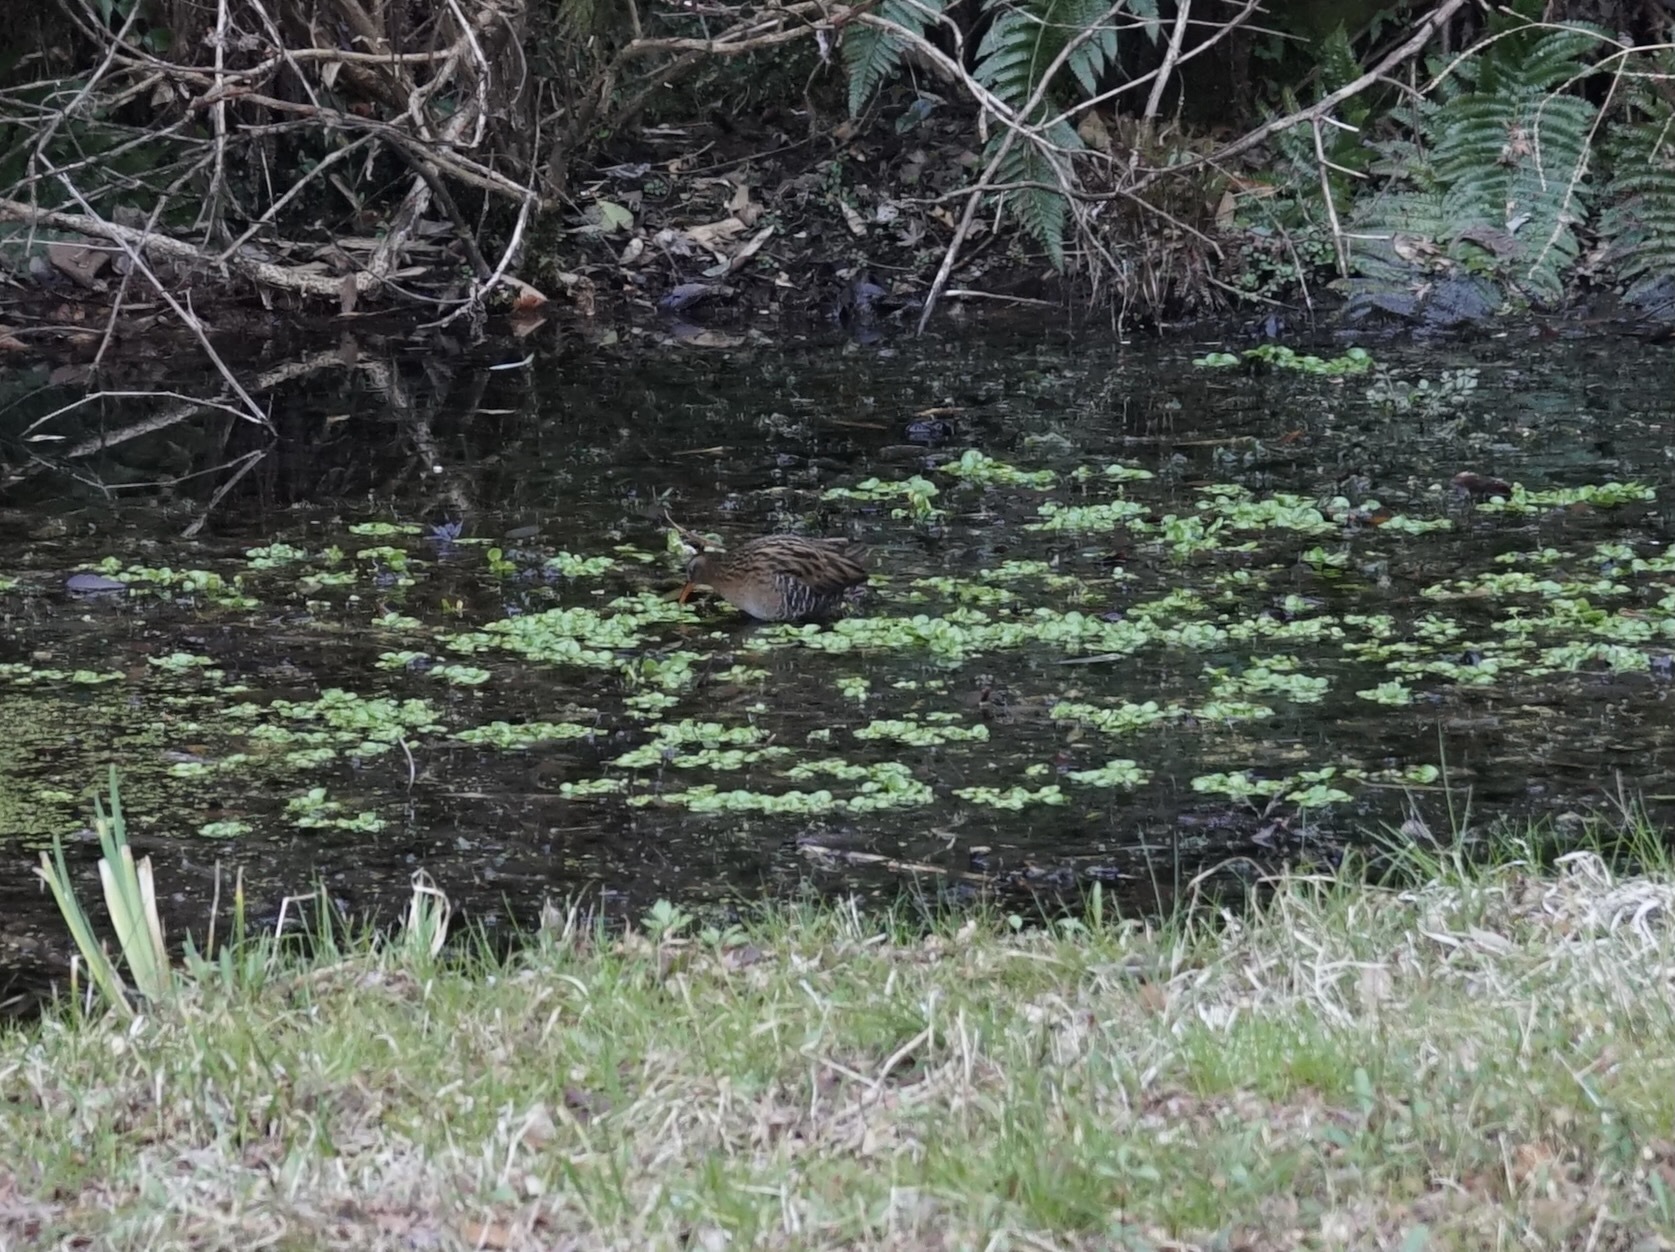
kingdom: Animalia
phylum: Chordata
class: Aves
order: Gruiformes
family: Rallidae
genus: Rallus
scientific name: Rallus indicus
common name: Brown-cheeked rail
